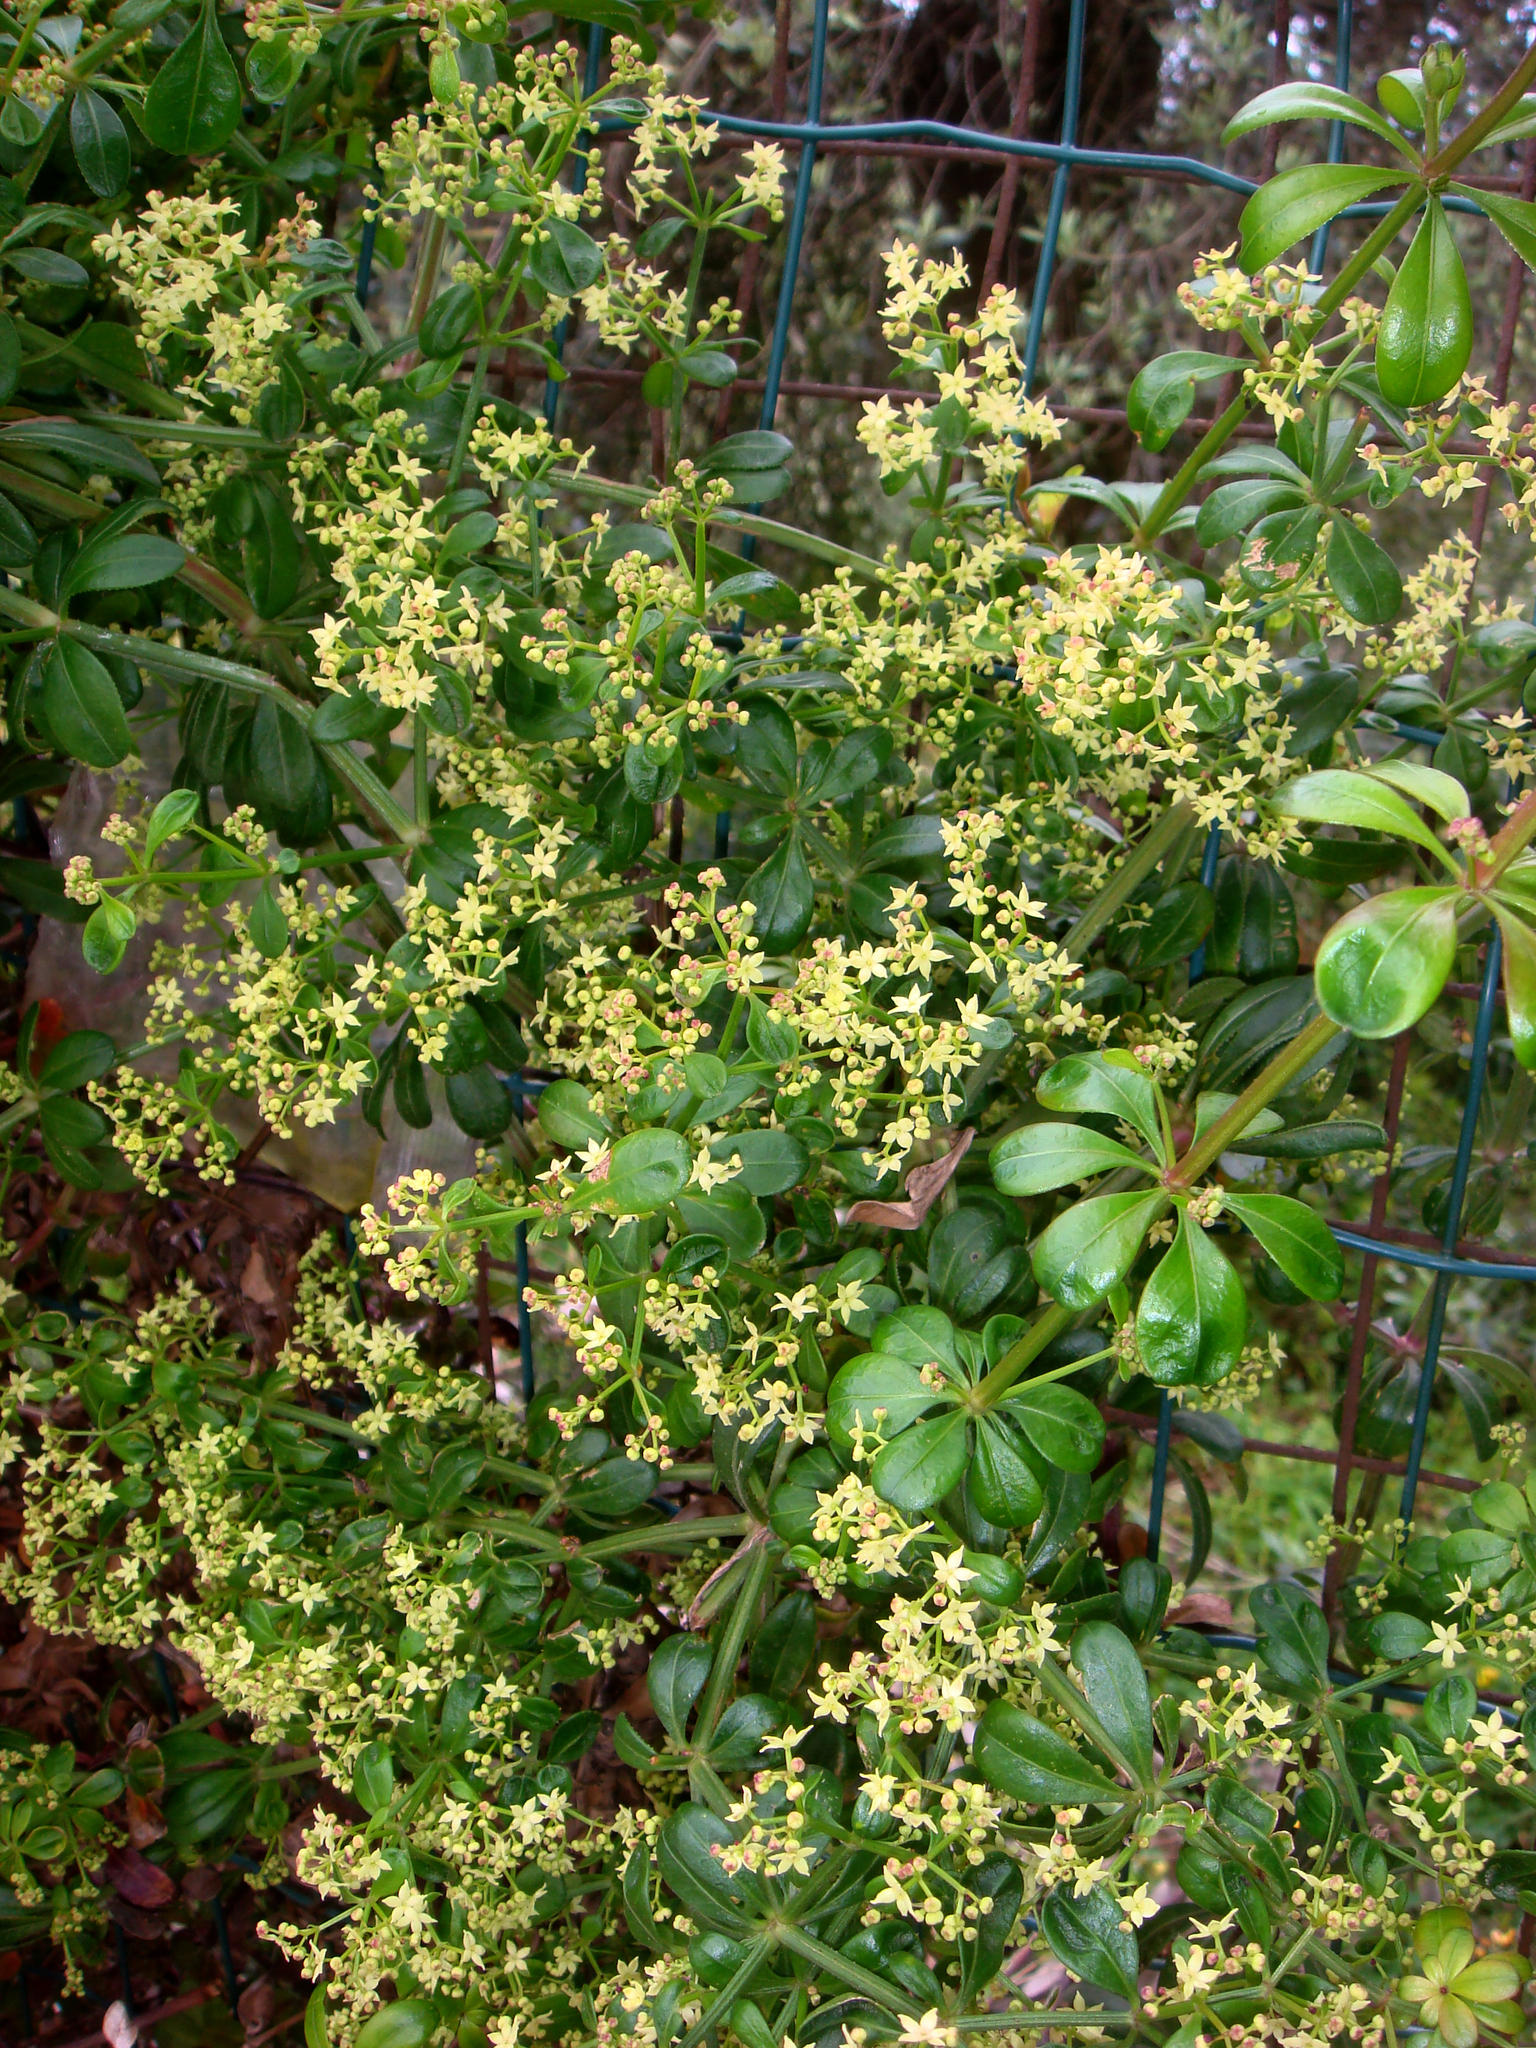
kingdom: Plantae
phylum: Tracheophyta
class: Magnoliopsida
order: Gentianales
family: Rubiaceae
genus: Rubia
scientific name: Rubia peregrina
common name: Wild madder
